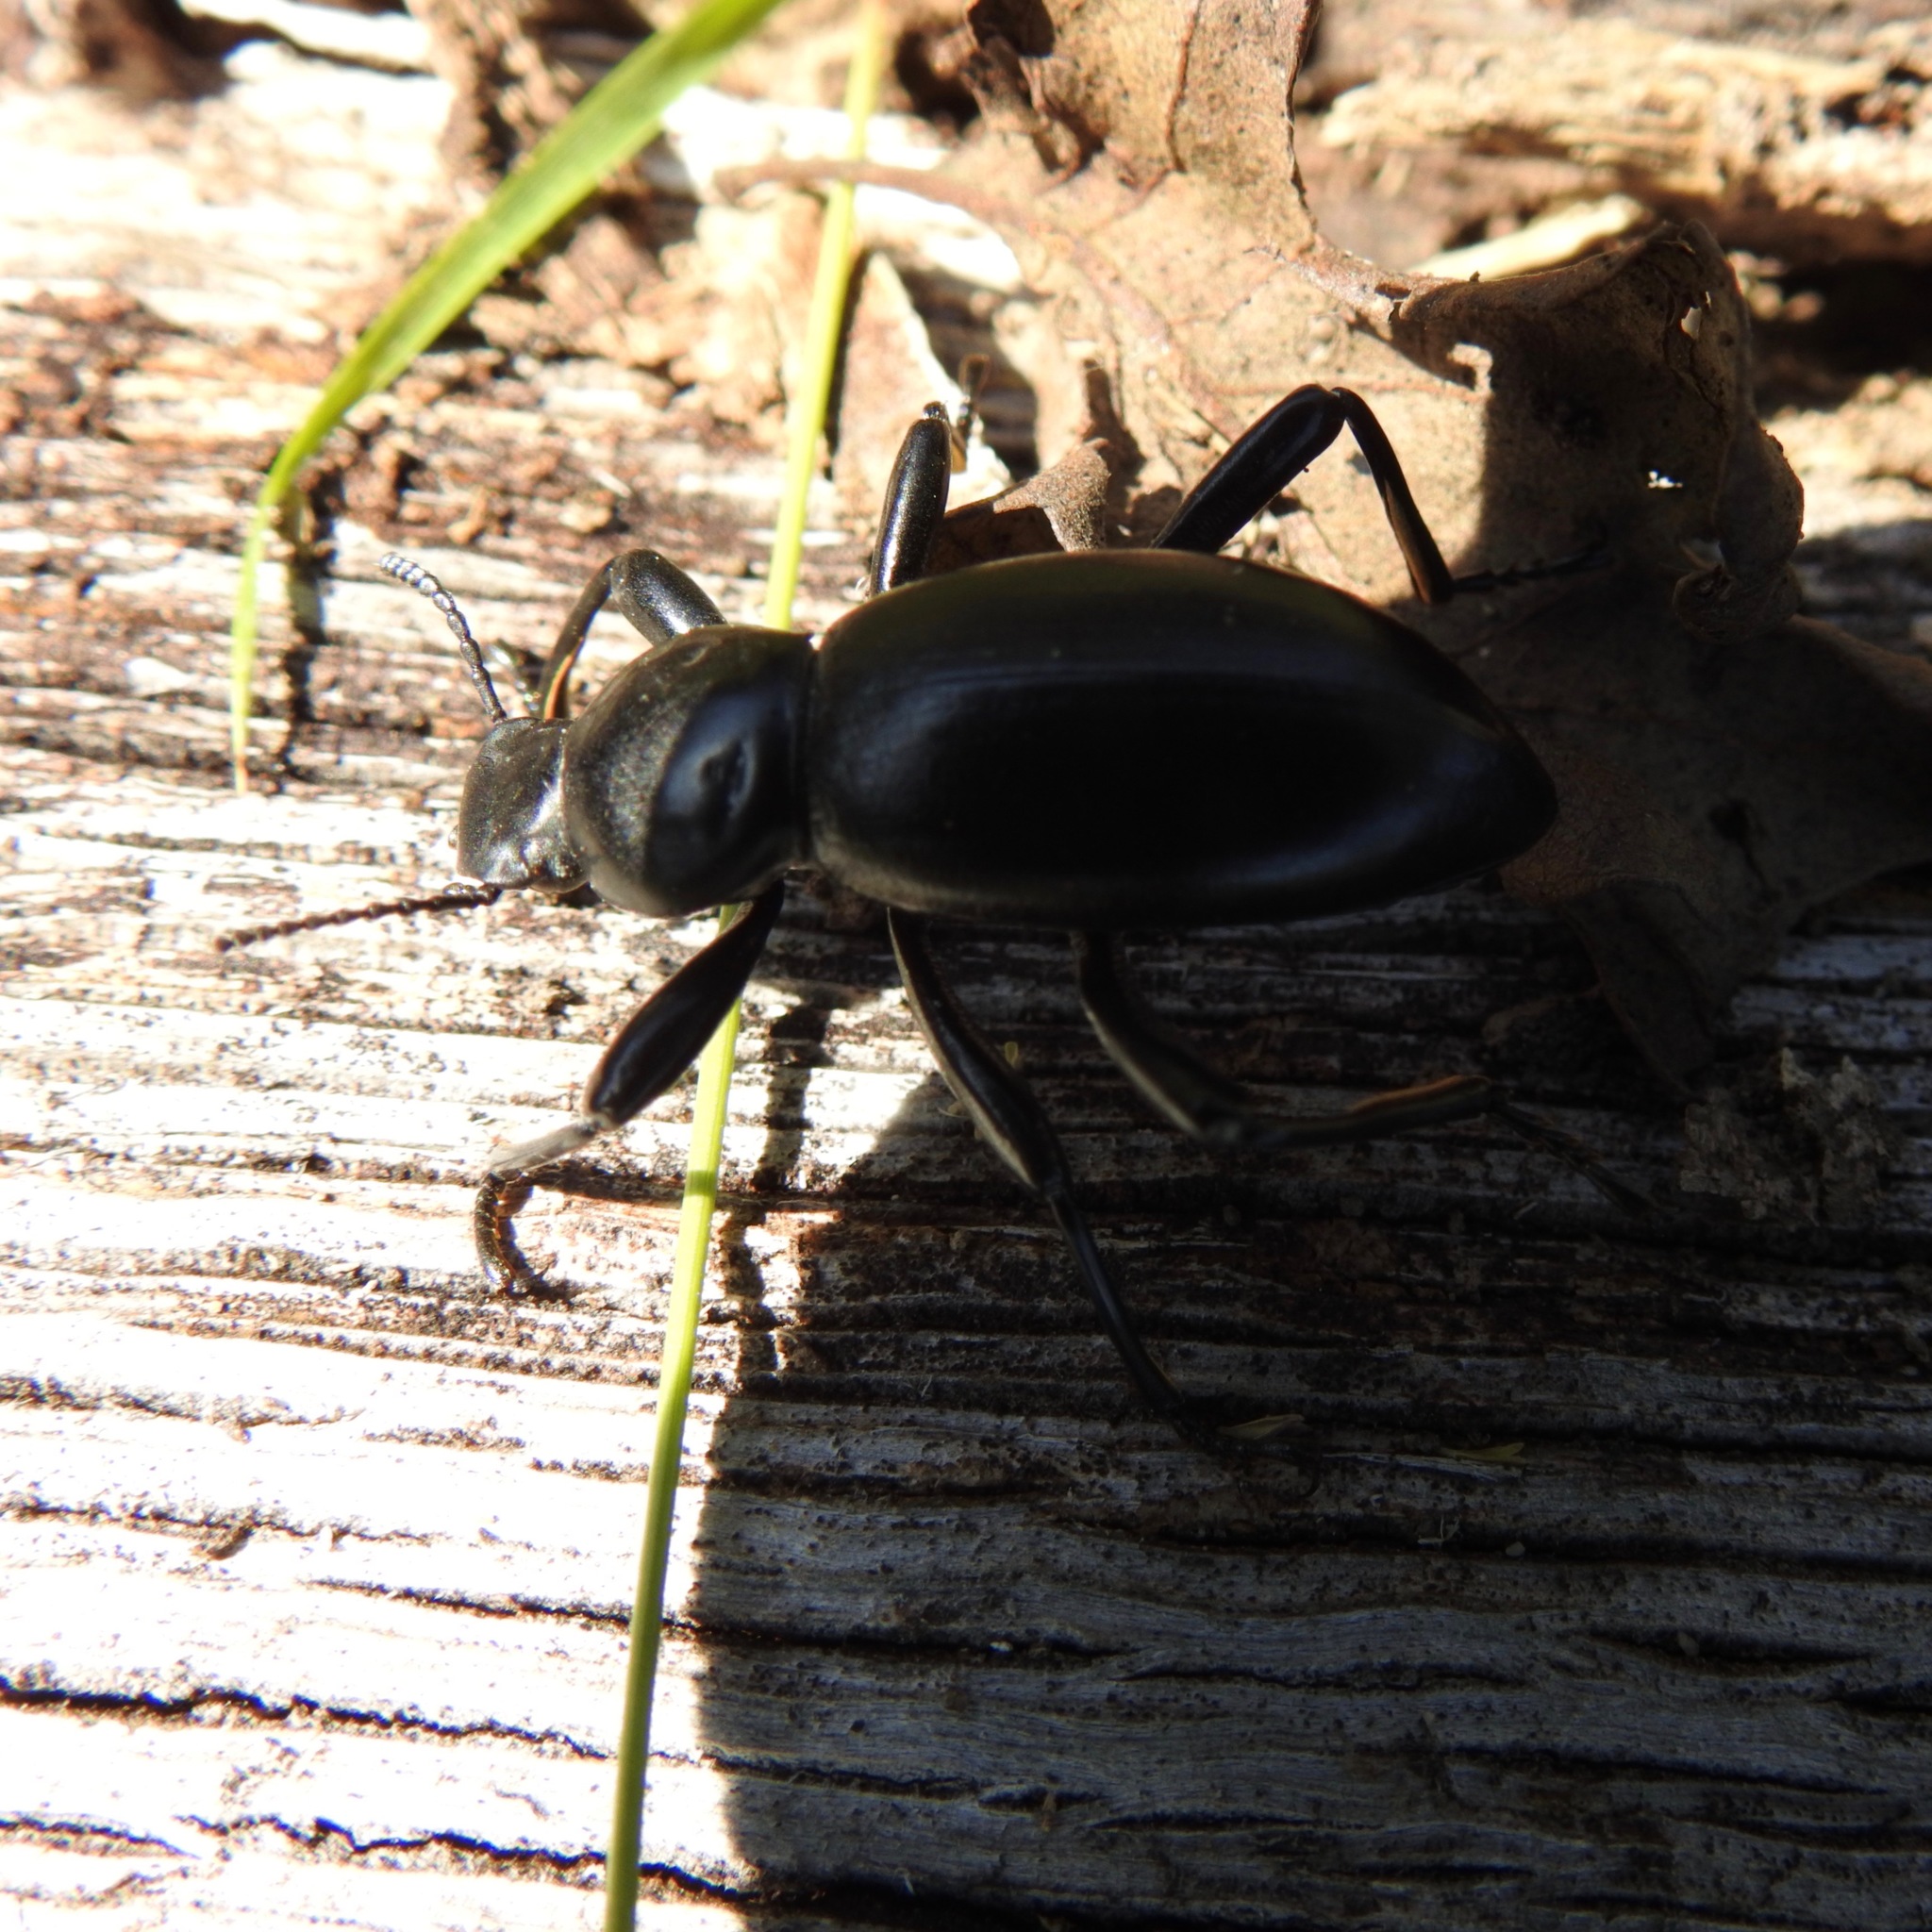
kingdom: Animalia
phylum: Arthropoda
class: Insecta
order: Coleoptera
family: Tenebrionidae
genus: Coelocnemis
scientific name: Coelocnemis magna
